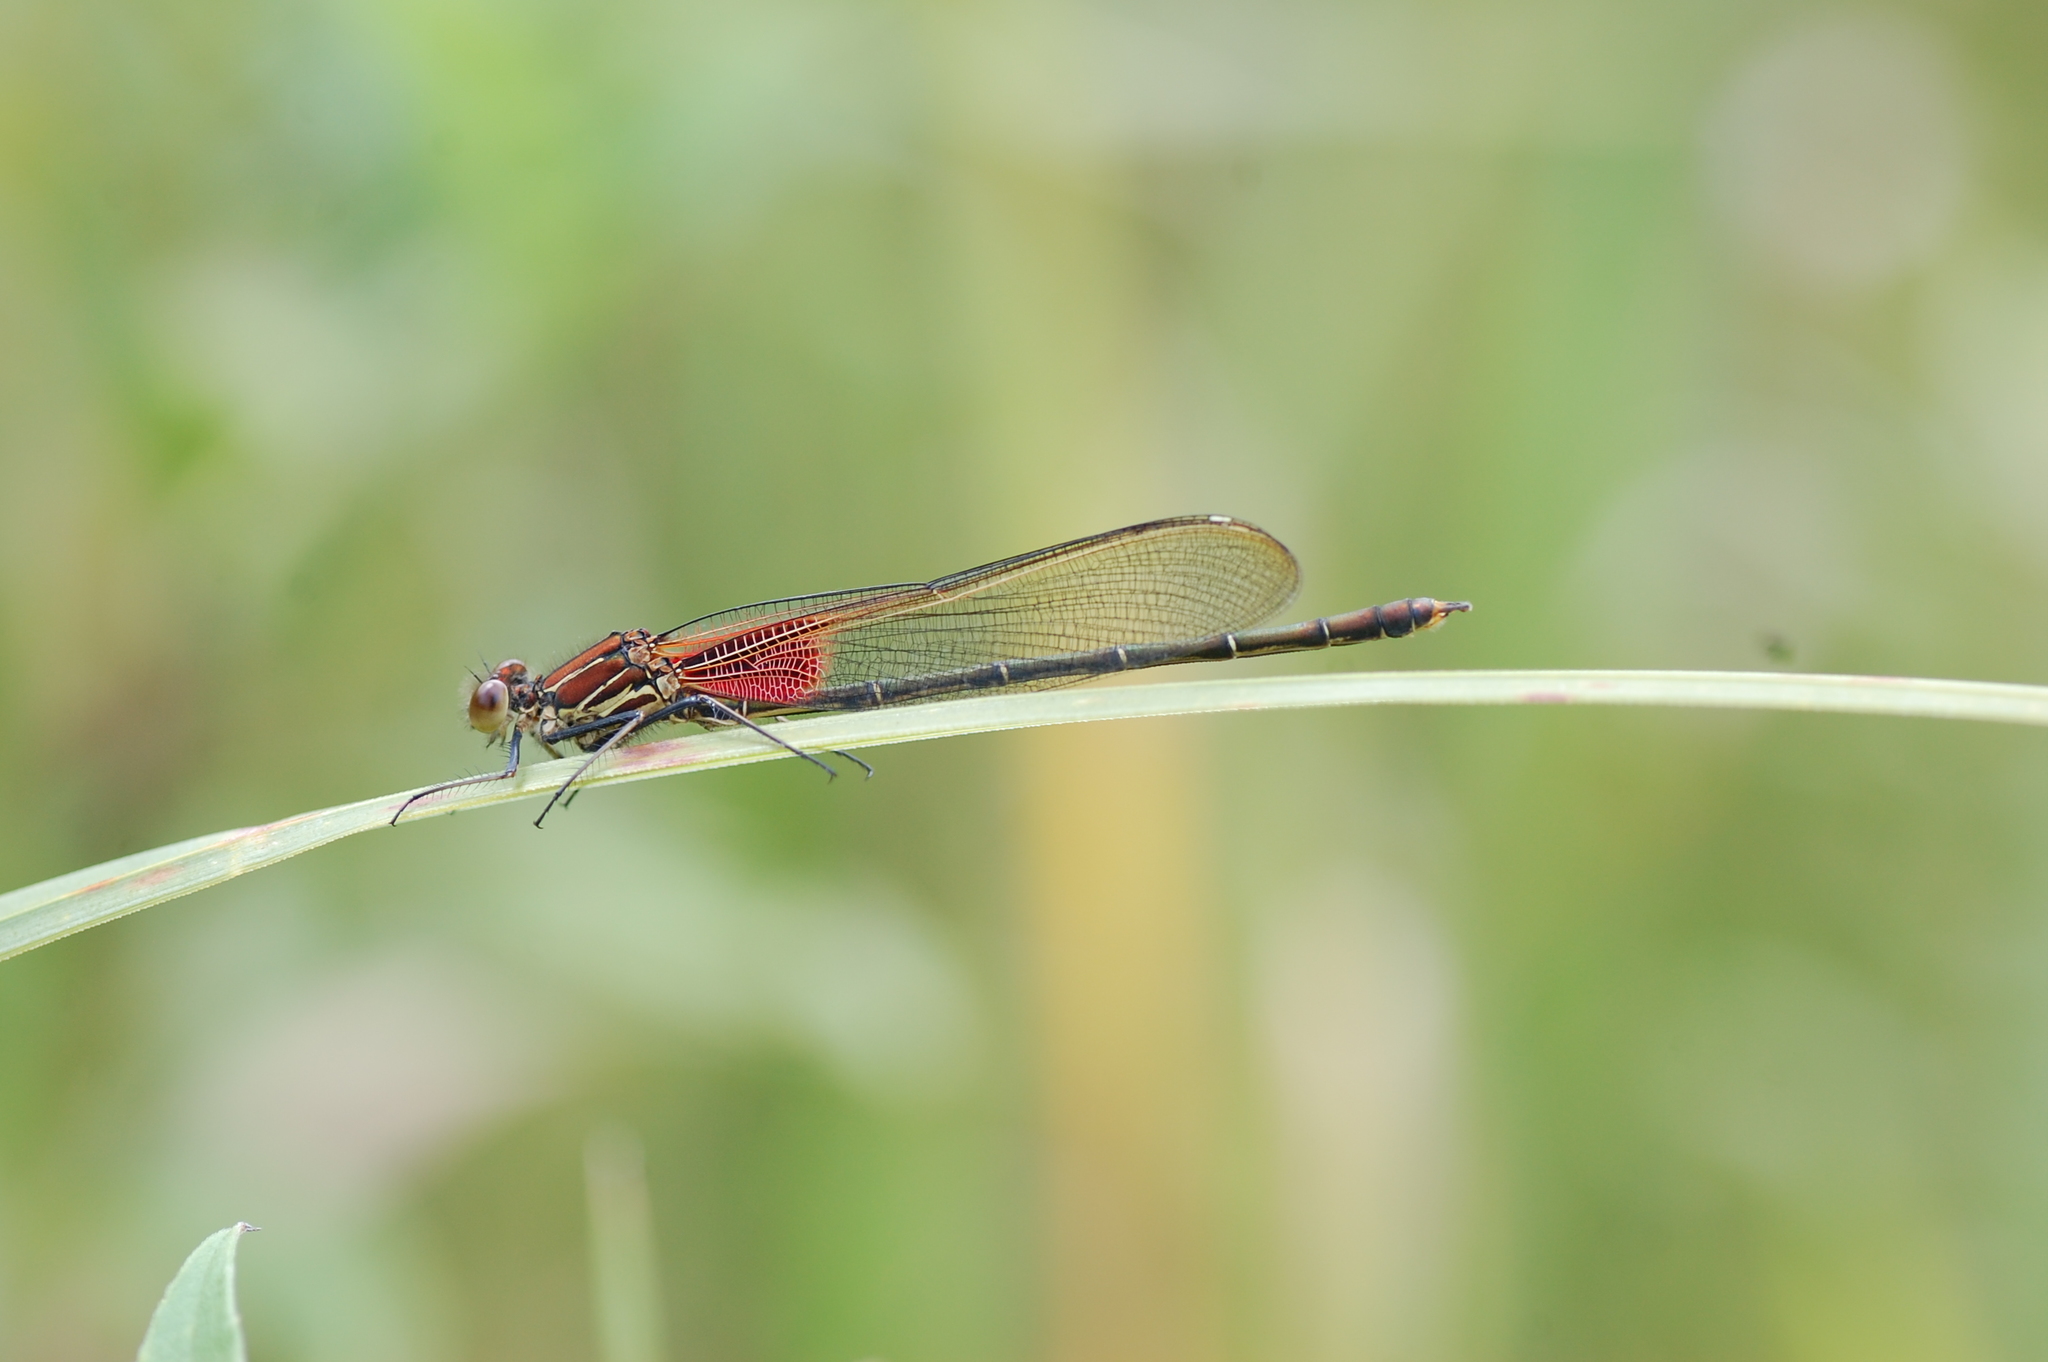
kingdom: Animalia
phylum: Arthropoda
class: Insecta
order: Odonata
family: Calopterygidae
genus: Hetaerina
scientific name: Hetaerina americana
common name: American rubyspot
